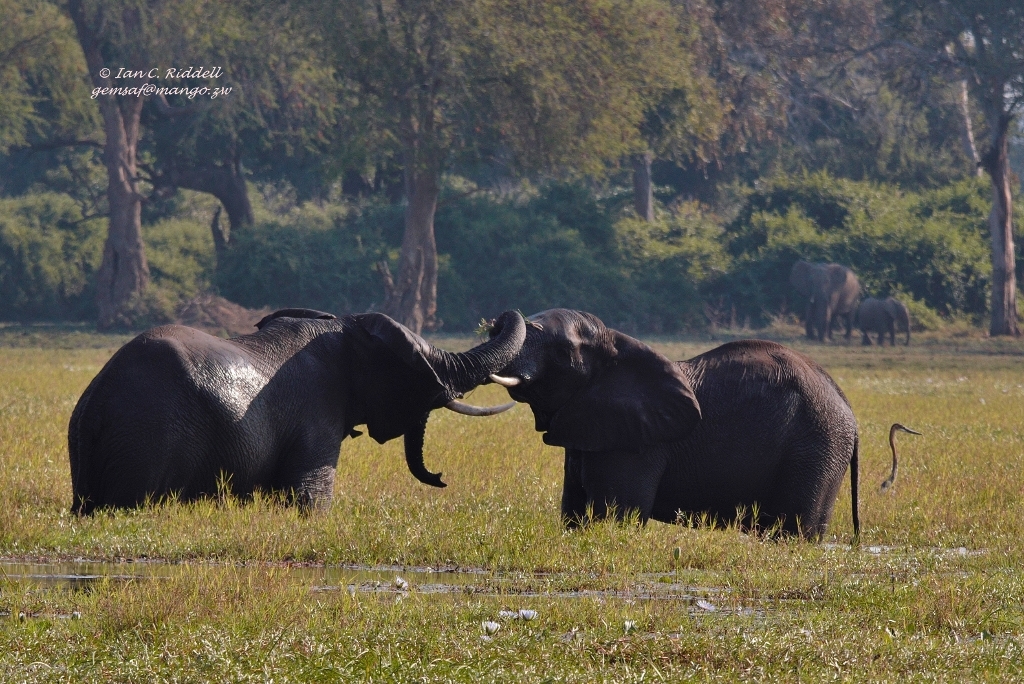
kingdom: Animalia
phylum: Chordata
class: Mammalia
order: Proboscidea
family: Elephantidae
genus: Loxodonta
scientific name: Loxodonta africana
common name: African elephant
